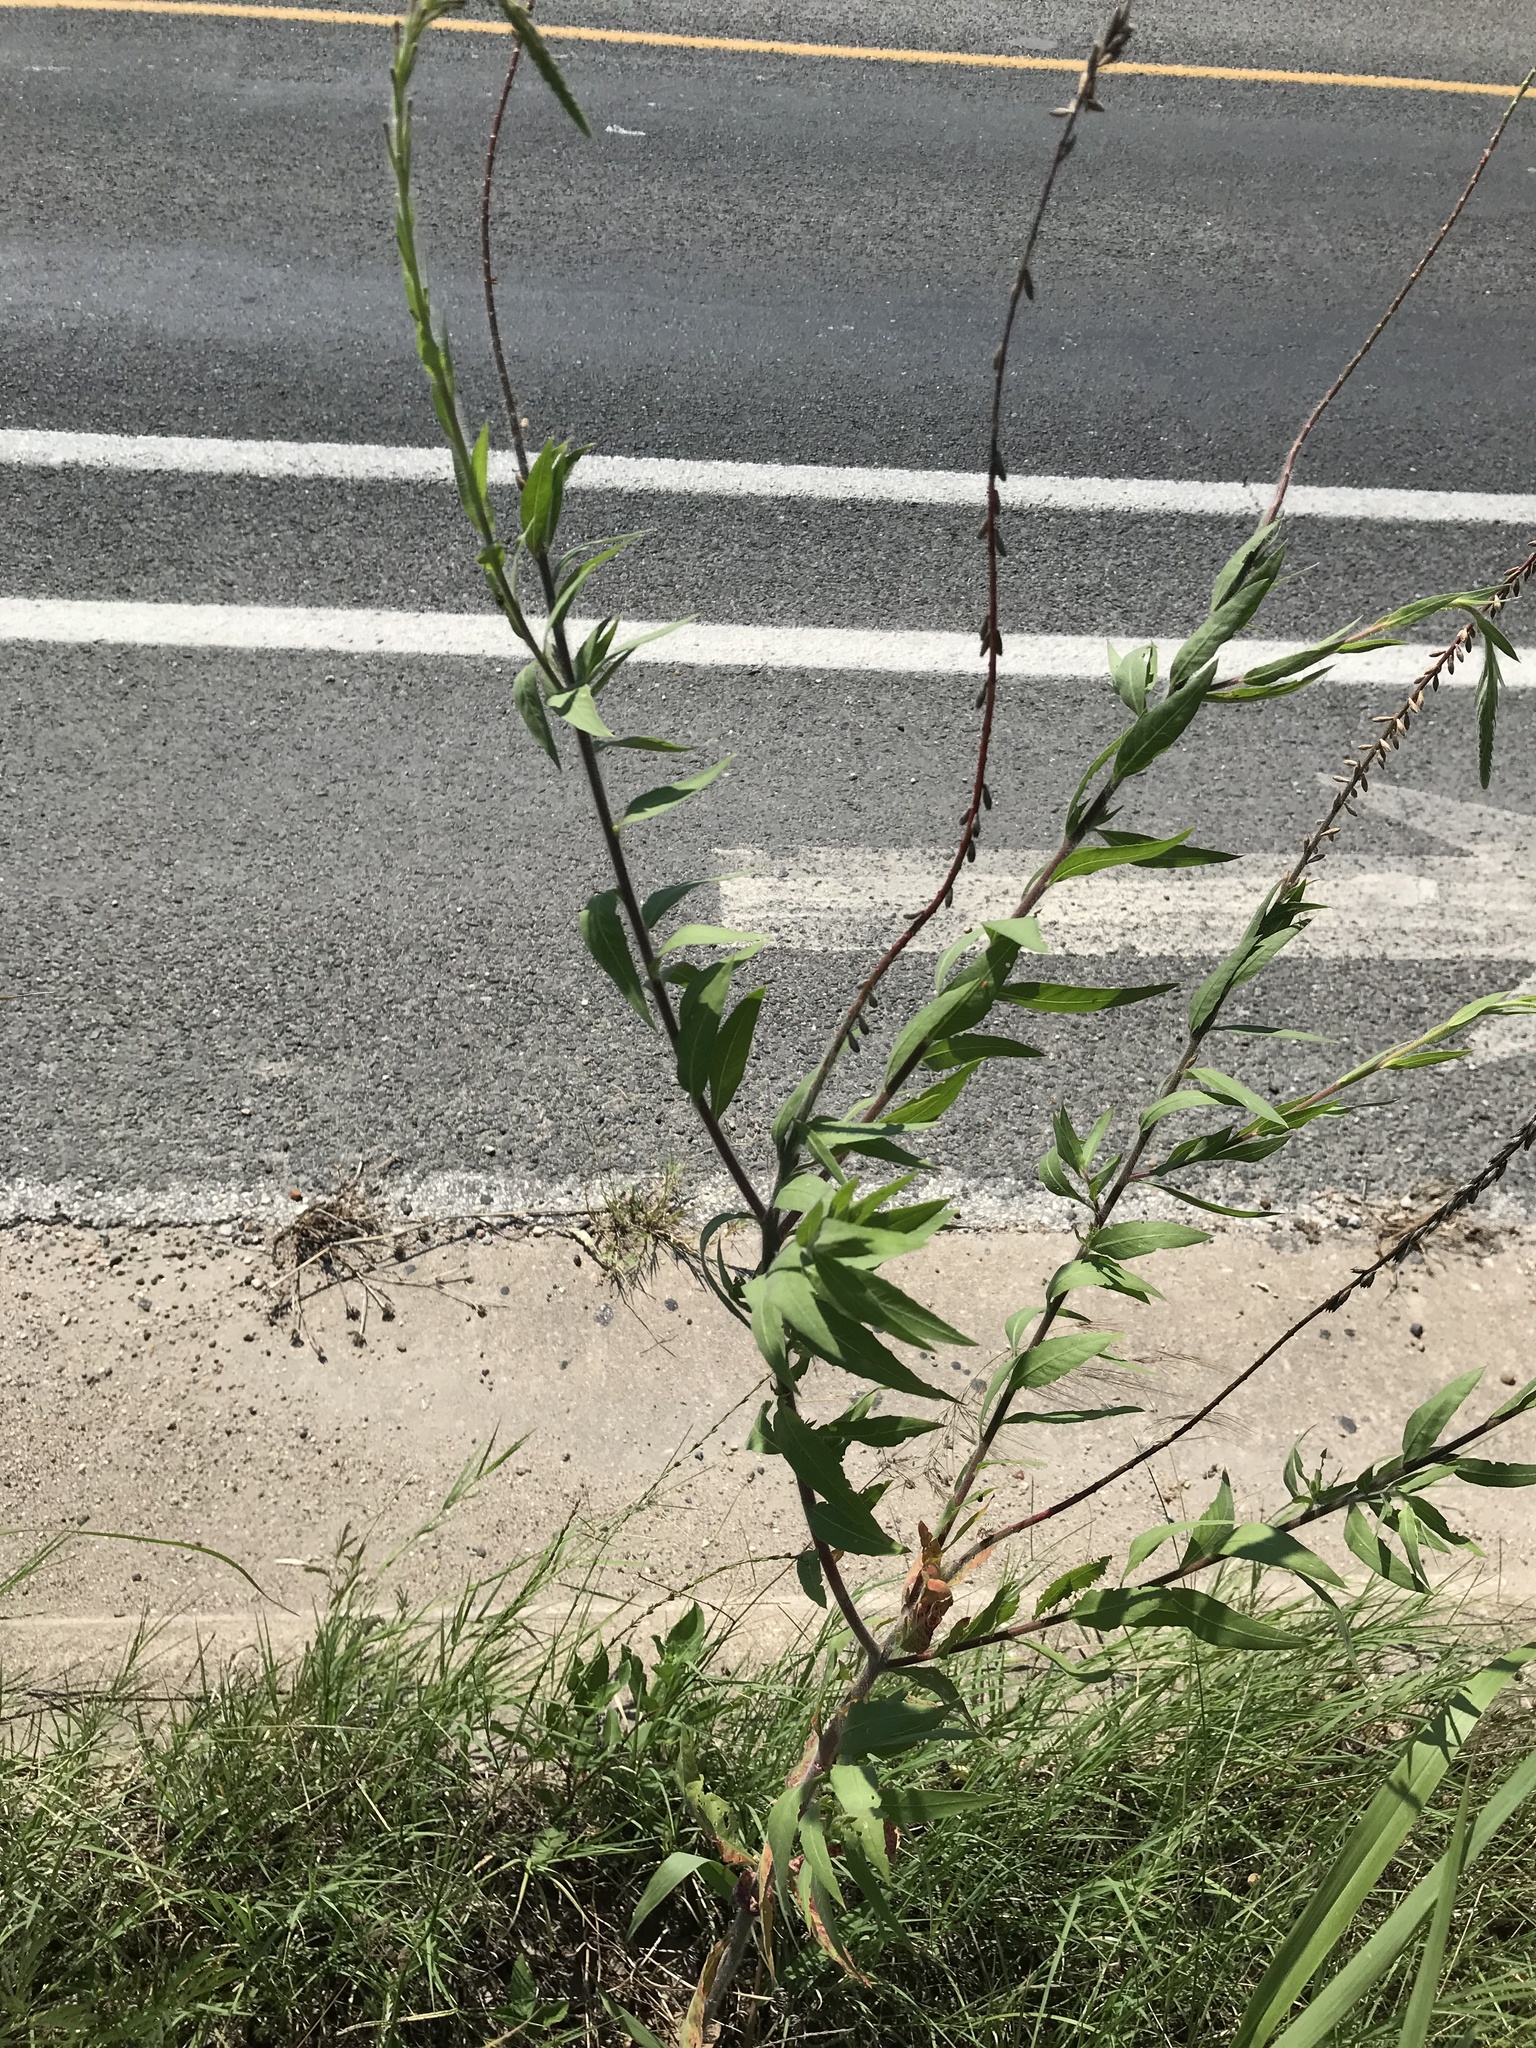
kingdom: Plantae
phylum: Tracheophyta
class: Magnoliopsida
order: Myrtales
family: Onagraceae
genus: Oenothera
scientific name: Oenothera curtiflora
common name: Velvetweed
